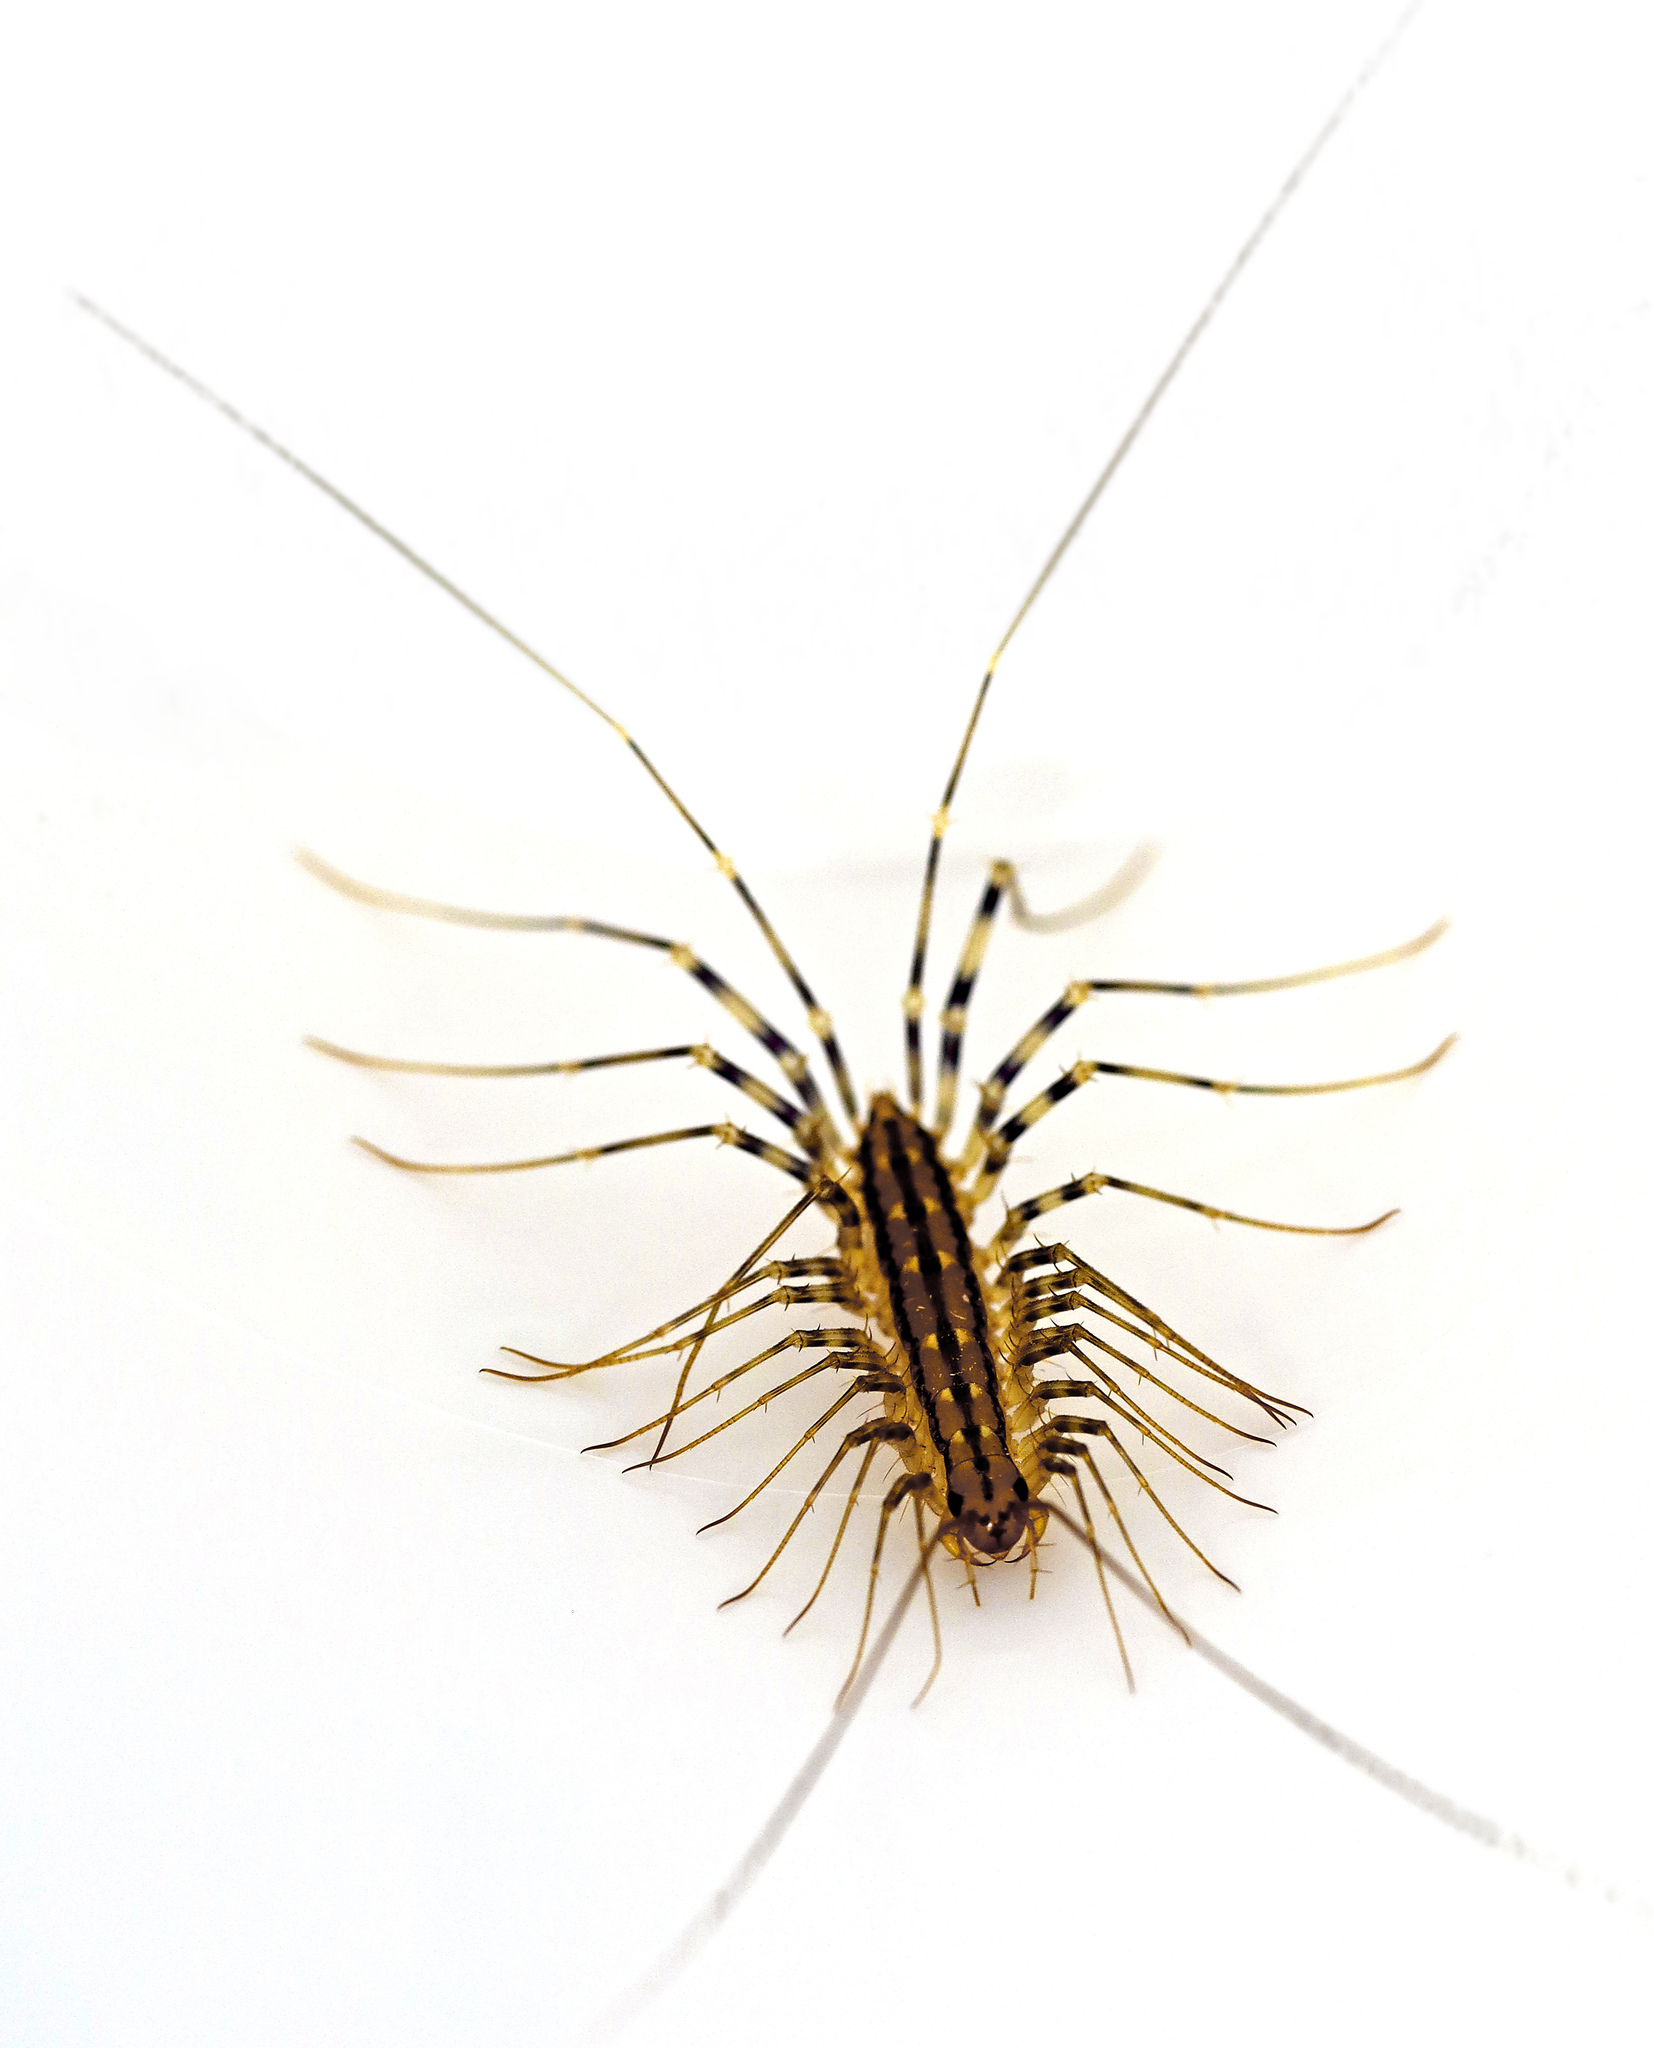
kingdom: Animalia
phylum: Arthropoda
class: Chilopoda
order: Scutigeromorpha
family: Scutigeridae
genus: Scutigera
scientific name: Scutigera coleoptrata
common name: House centipede
